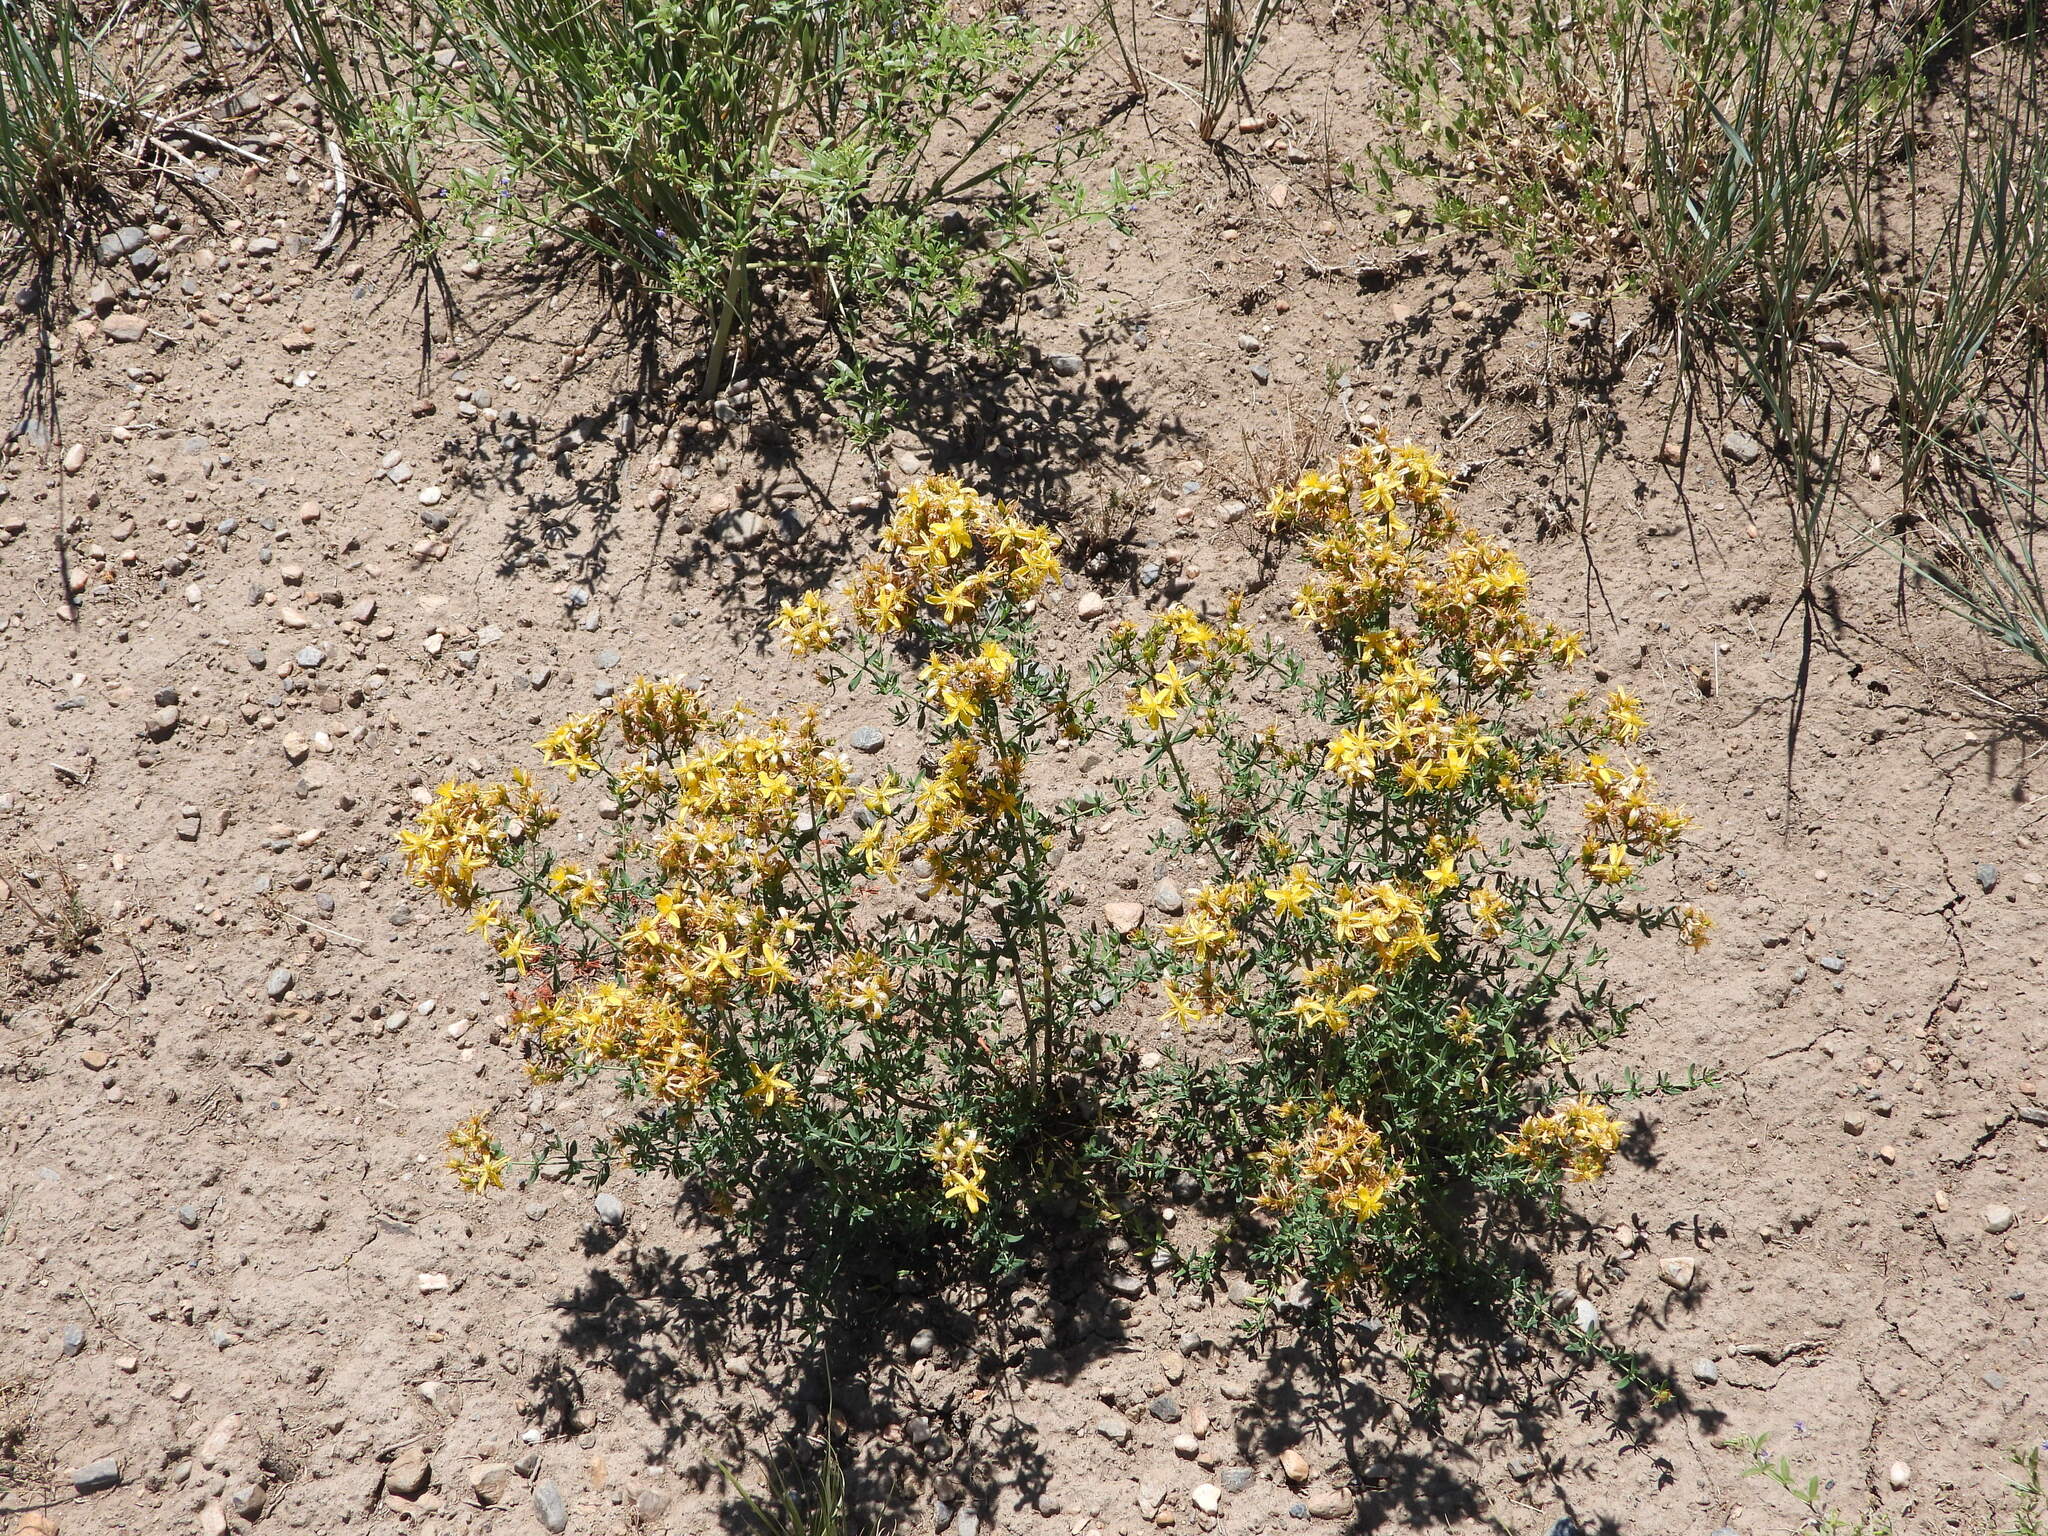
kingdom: Plantae
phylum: Tracheophyta
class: Magnoliopsida
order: Malpighiales
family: Hypericaceae
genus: Hypericum
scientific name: Hypericum perforatum
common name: Common st. johnswort
